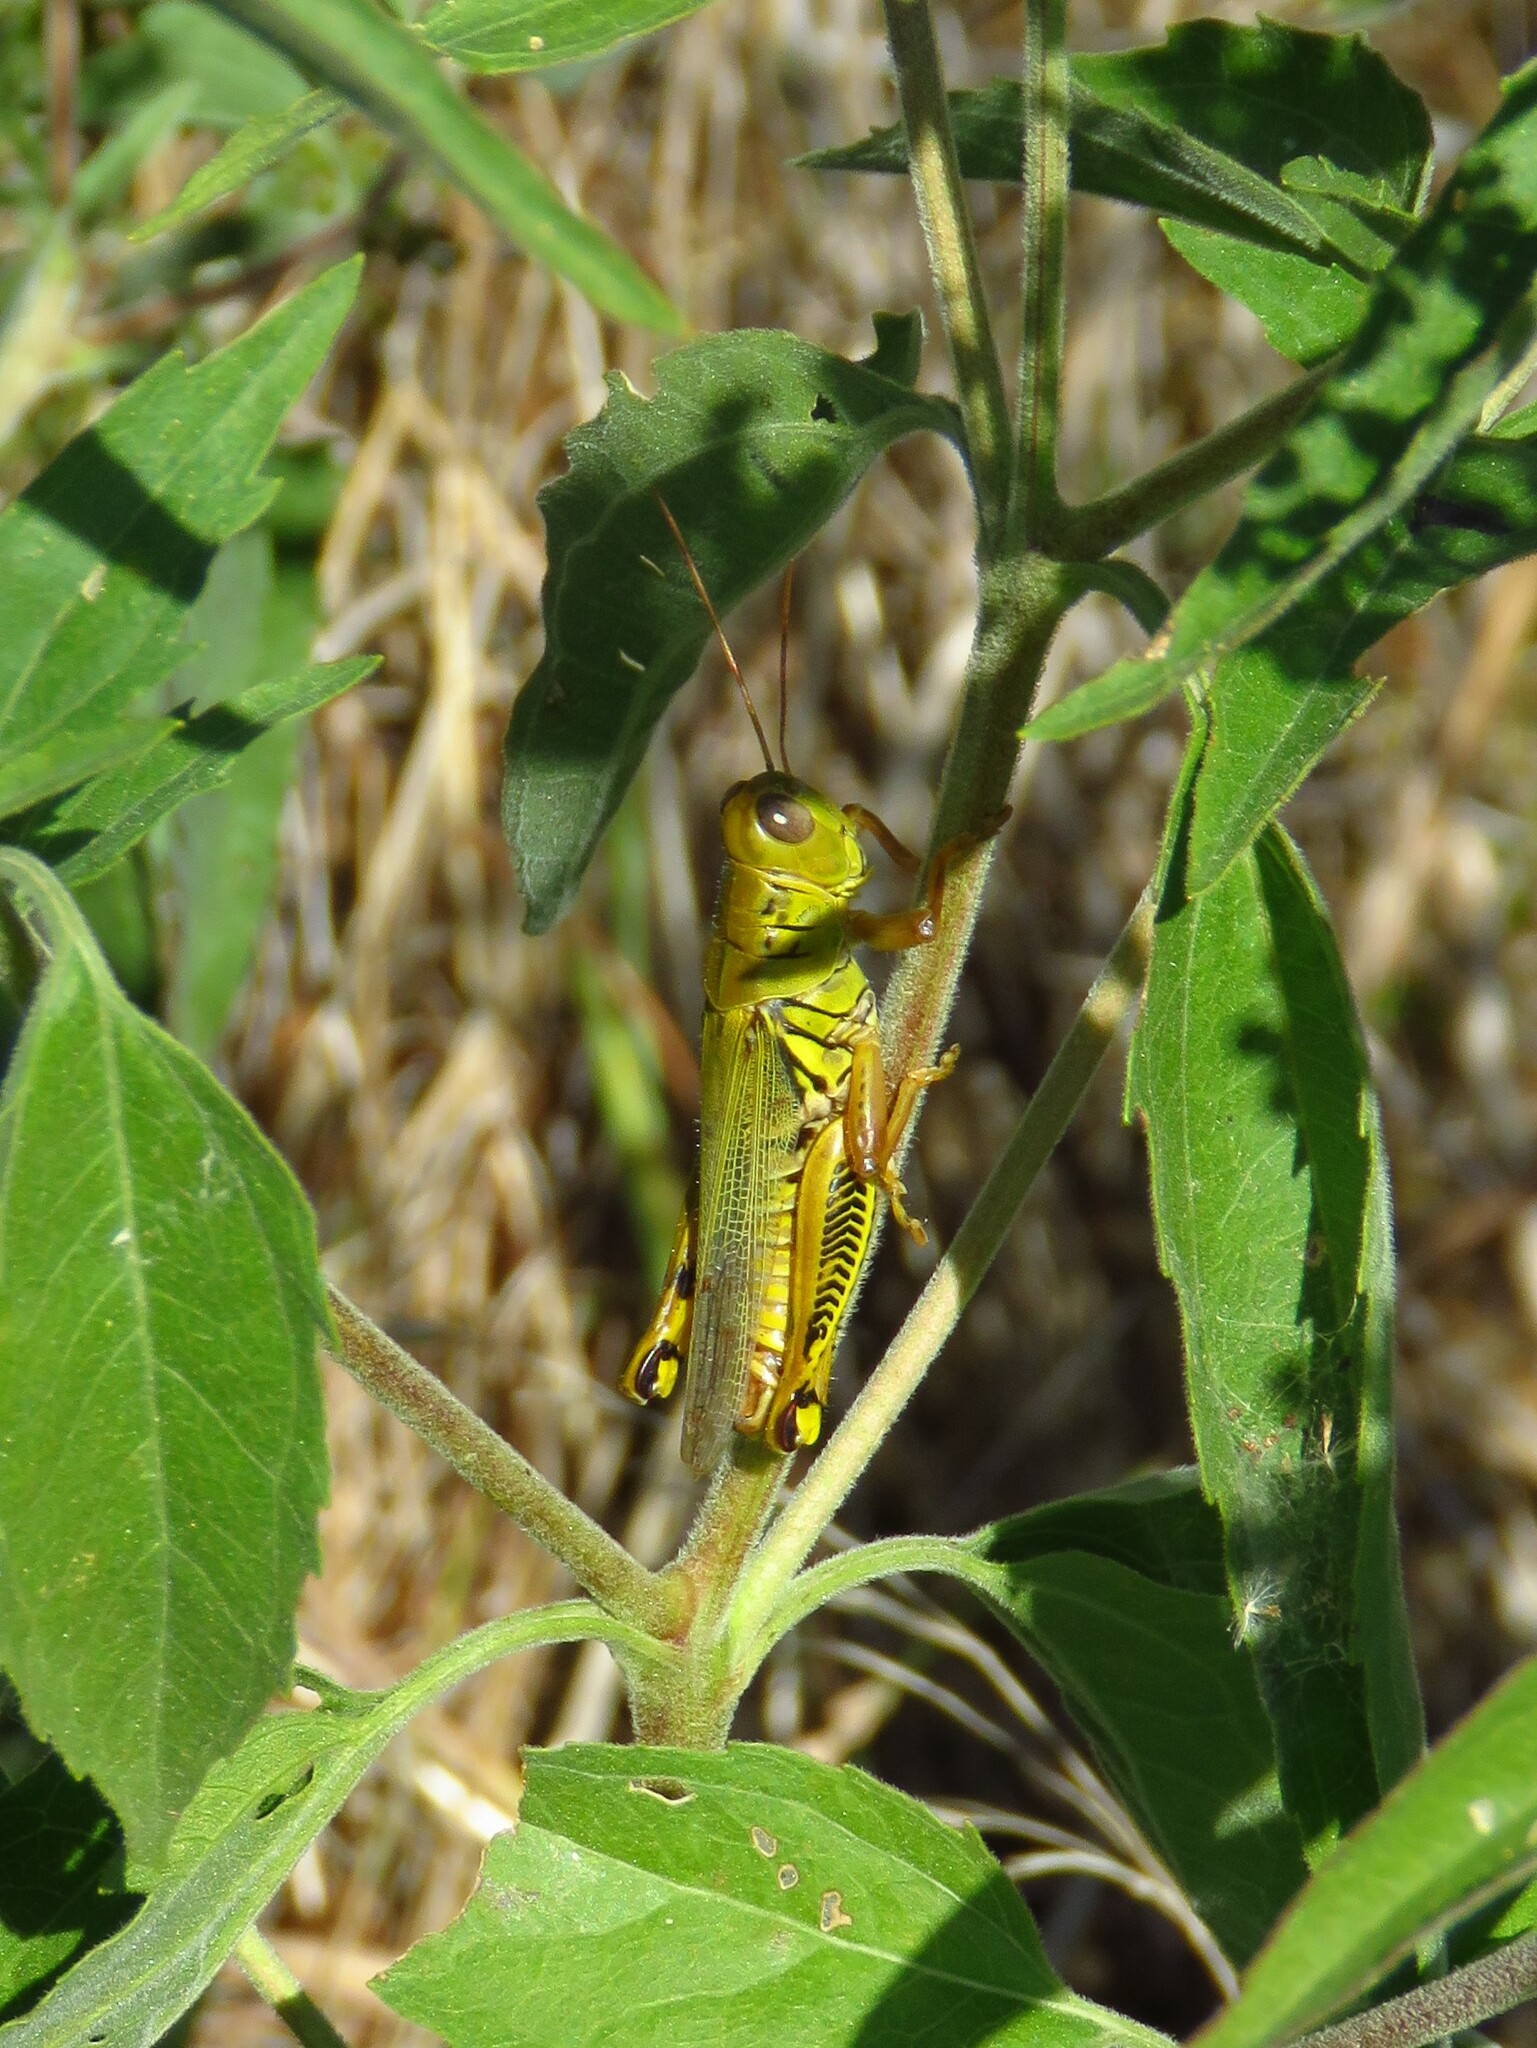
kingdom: Animalia
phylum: Arthropoda
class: Insecta
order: Orthoptera
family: Acrididae
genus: Melanoplus
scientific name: Melanoplus differentialis
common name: Differential grasshopper
